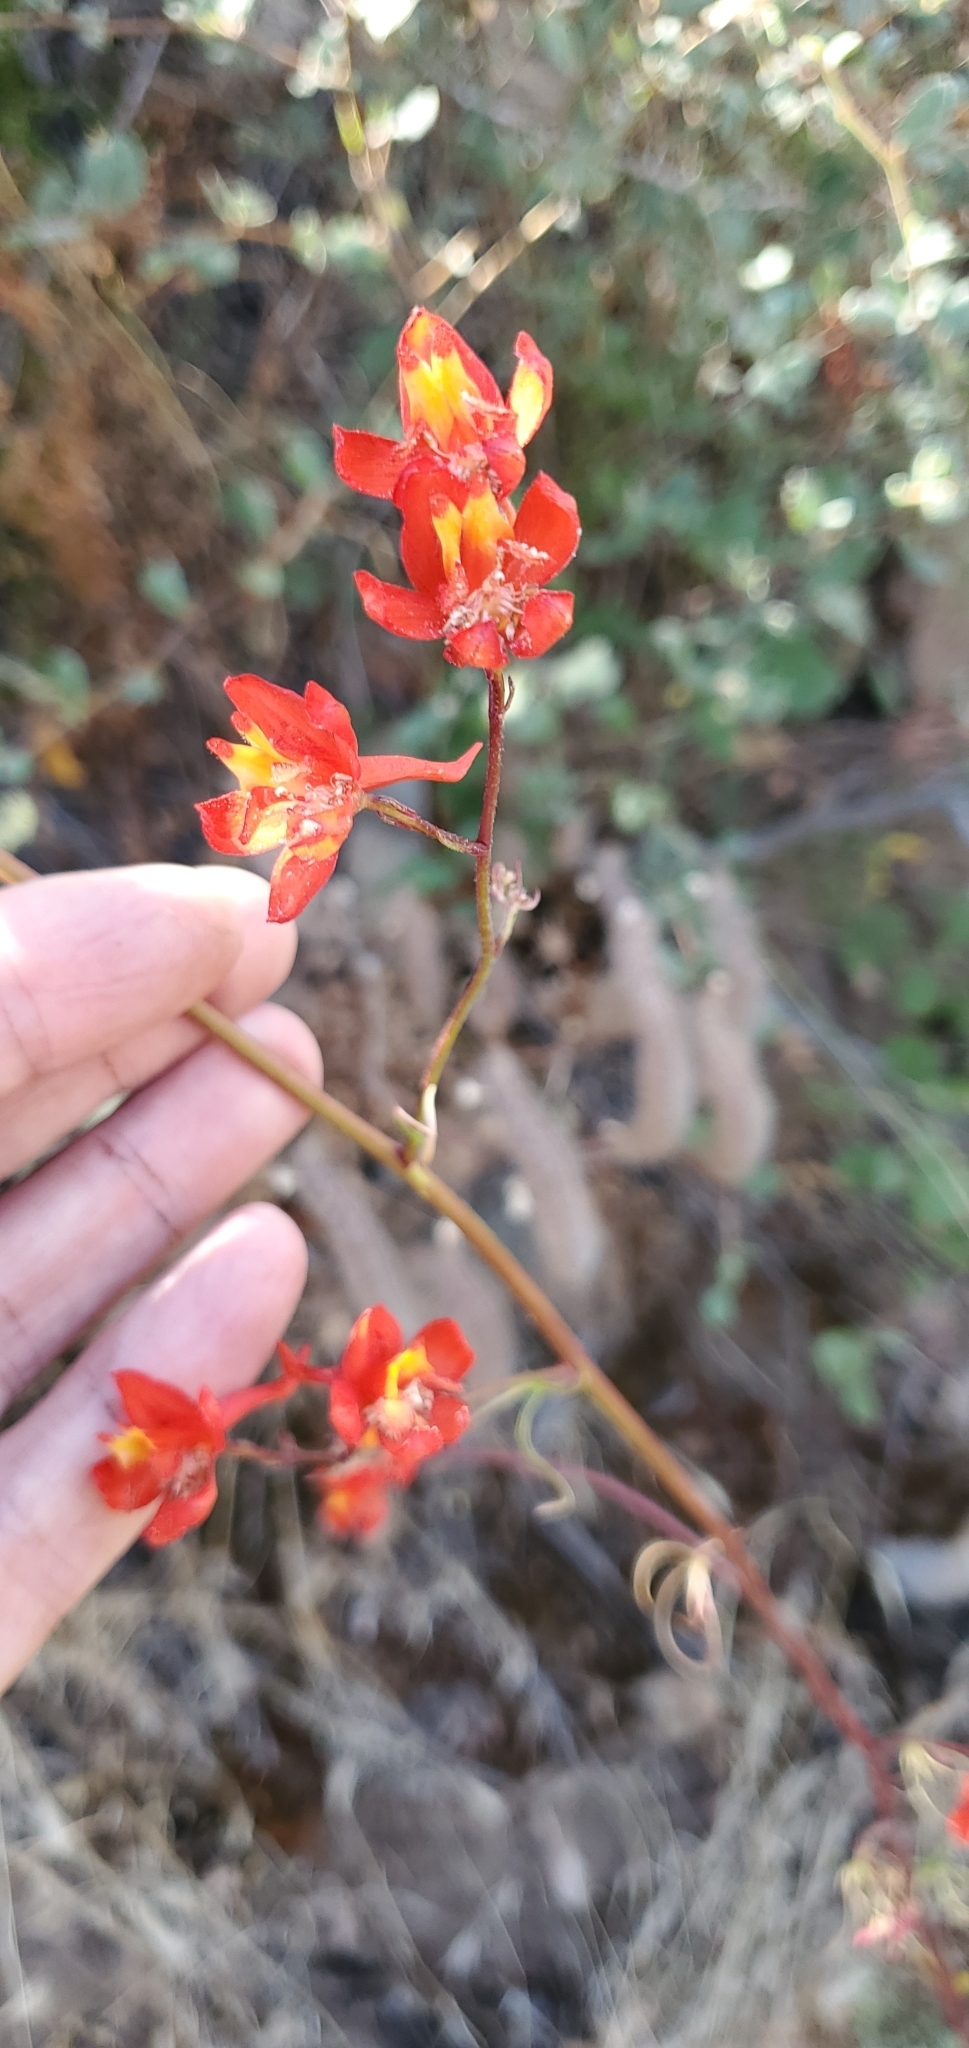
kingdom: Plantae
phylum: Tracheophyta
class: Magnoliopsida
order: Ranunculales
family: Ranunculaceae
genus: Delphinium
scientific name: Delphinium cardinale
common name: Scarlet larkspur
